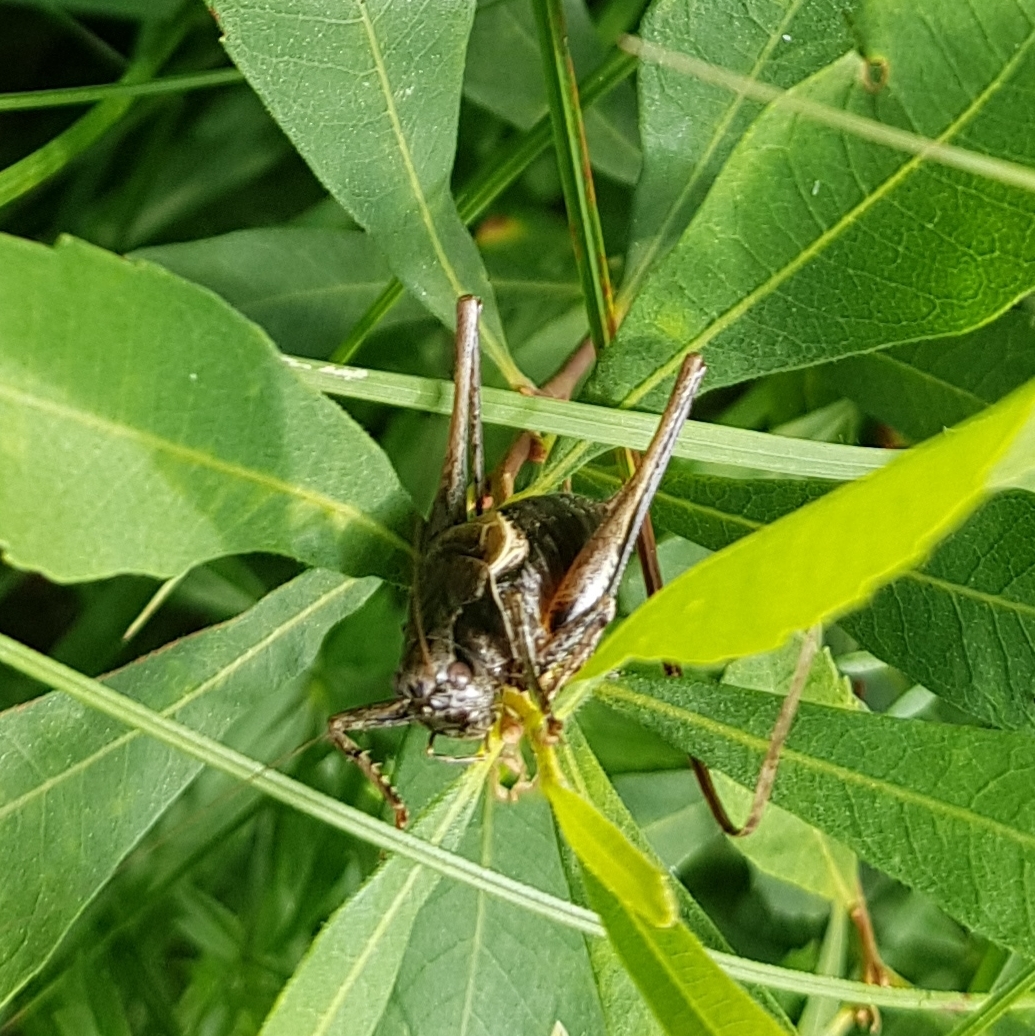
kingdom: Animalia
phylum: Arthropoda
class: Insecta
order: Orthoptera
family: Tettigoniidae
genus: Pholidoptera
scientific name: Pholidoptera griseoaptera
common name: Dark bush-cricket
